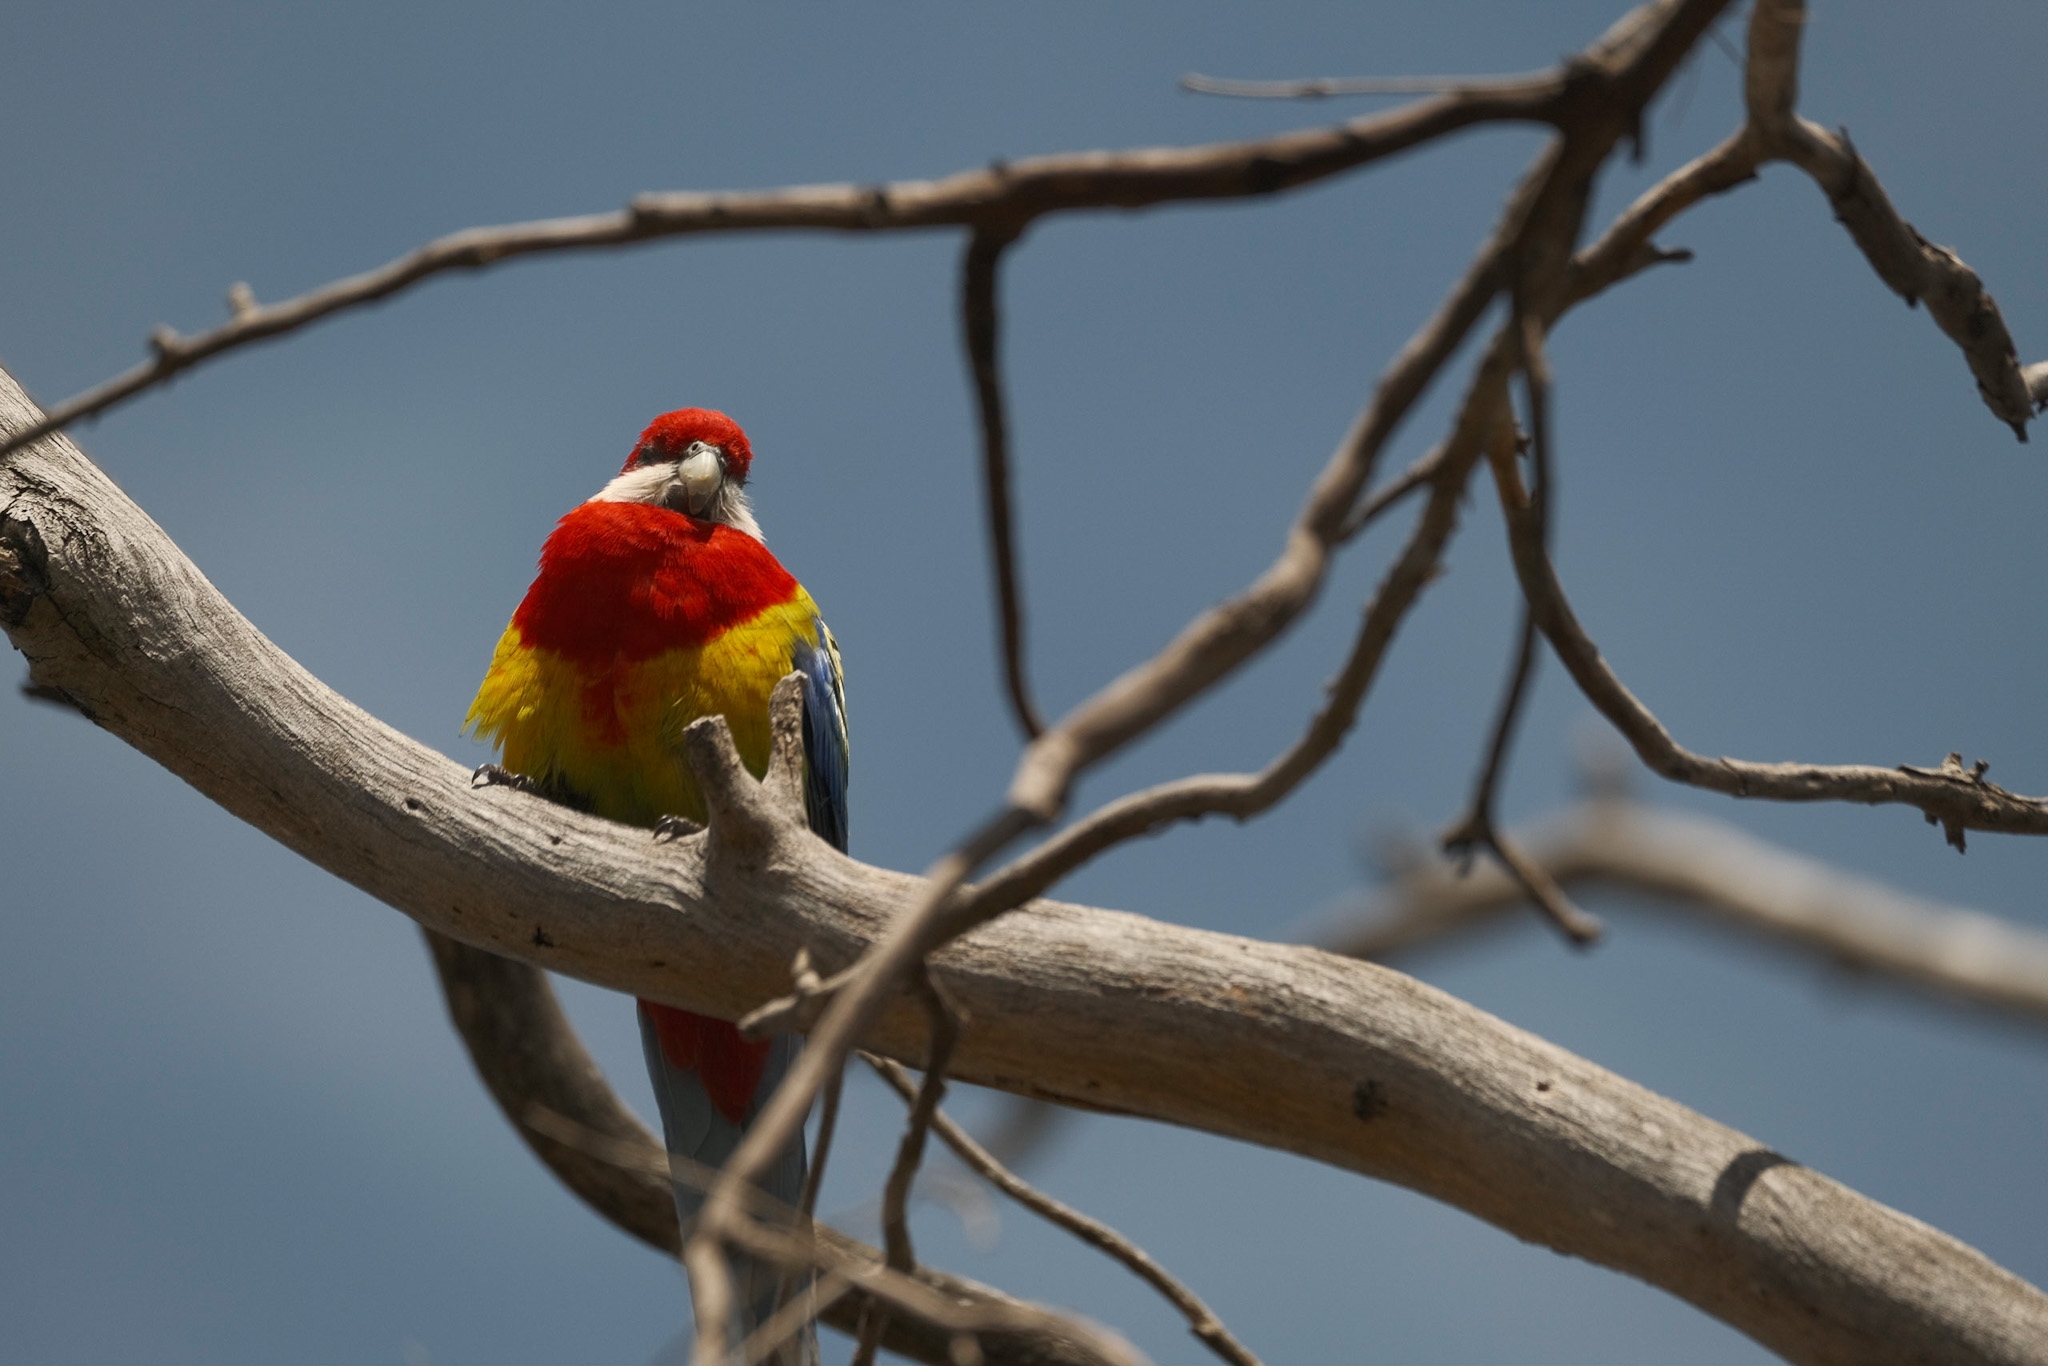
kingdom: Animalia
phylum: Chordata
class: Aves
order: Psittaciformes
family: Psittacidae
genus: Platycercus
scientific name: Platycercus eximius
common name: Eastern rosella
